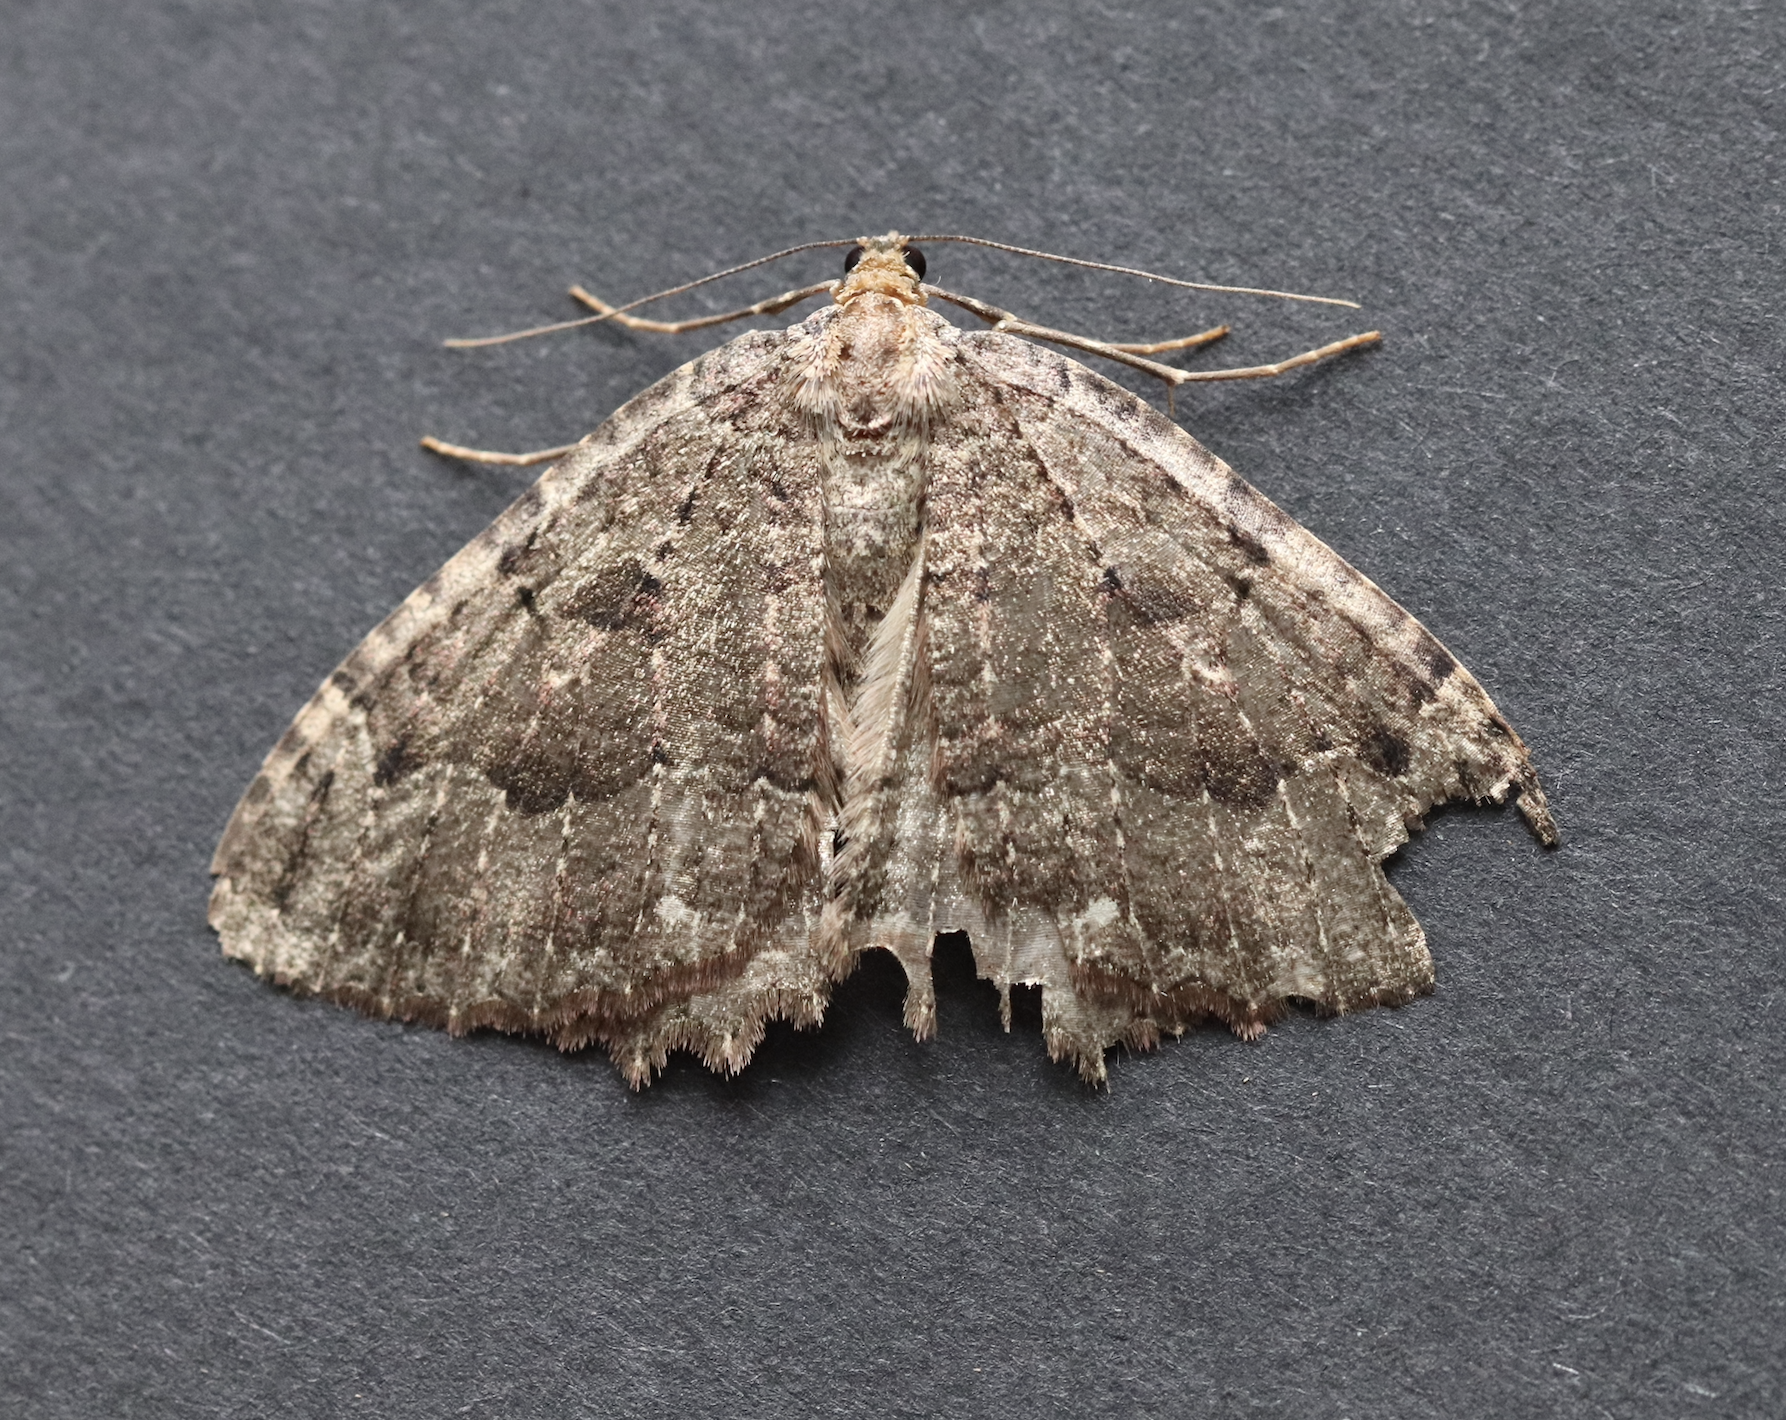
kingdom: Animalia
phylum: Arthropoda
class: Insecta
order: Lepidoptera
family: Geometridae
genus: Triphosa
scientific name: Triphosa dubitata
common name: Tissue
